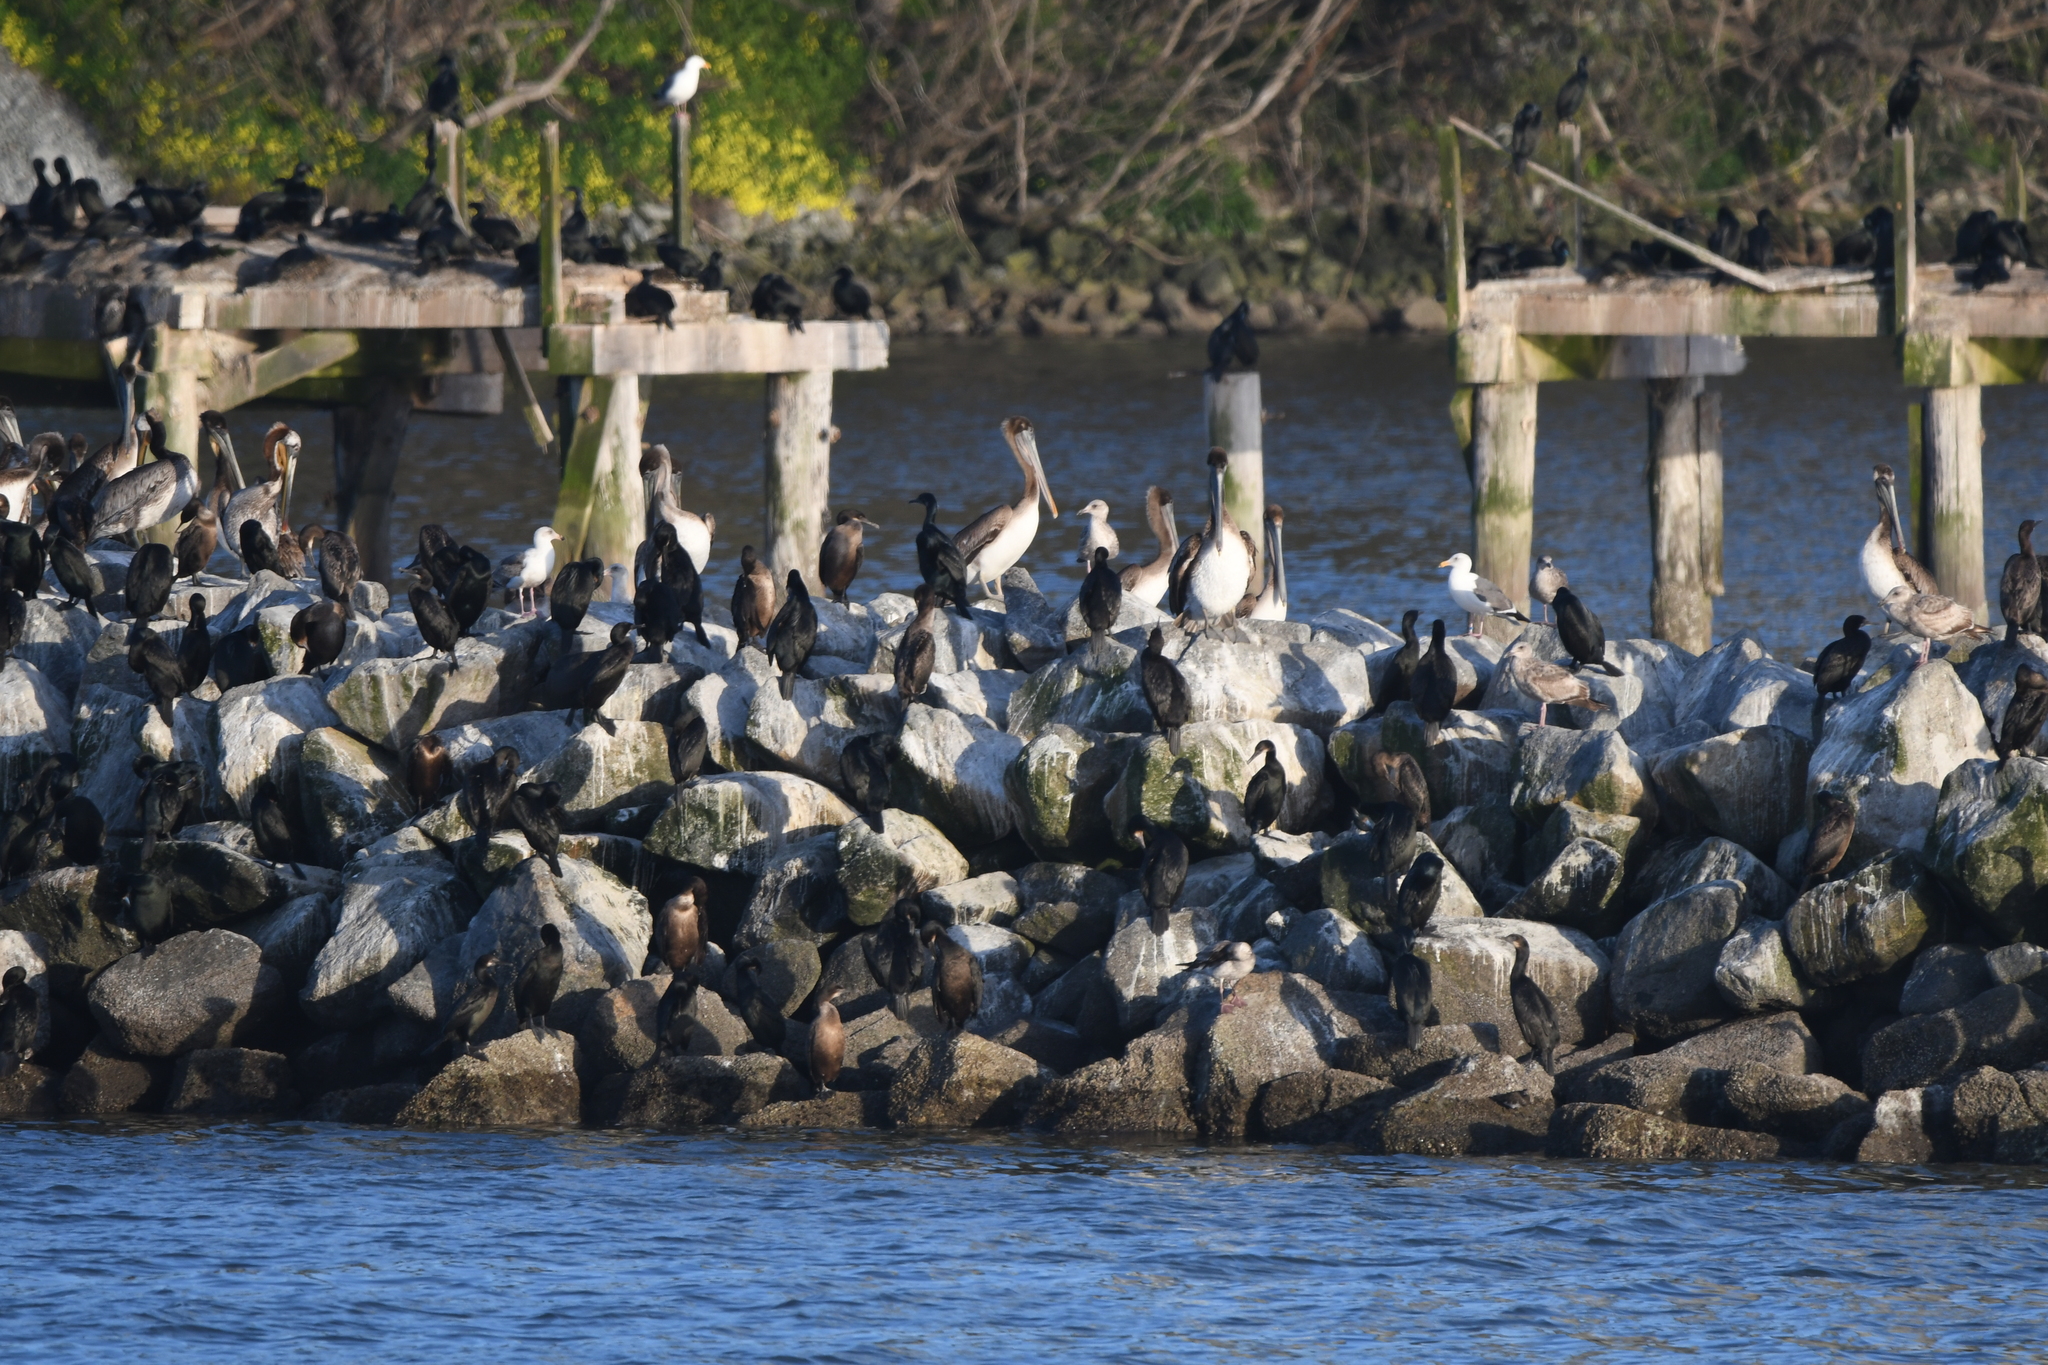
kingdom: Animalia
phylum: Chordata
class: Aves
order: Pelecaniformes
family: Pelecanidae
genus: Pelecanus
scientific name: Pelecanus occidentalis
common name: Brown pelican
